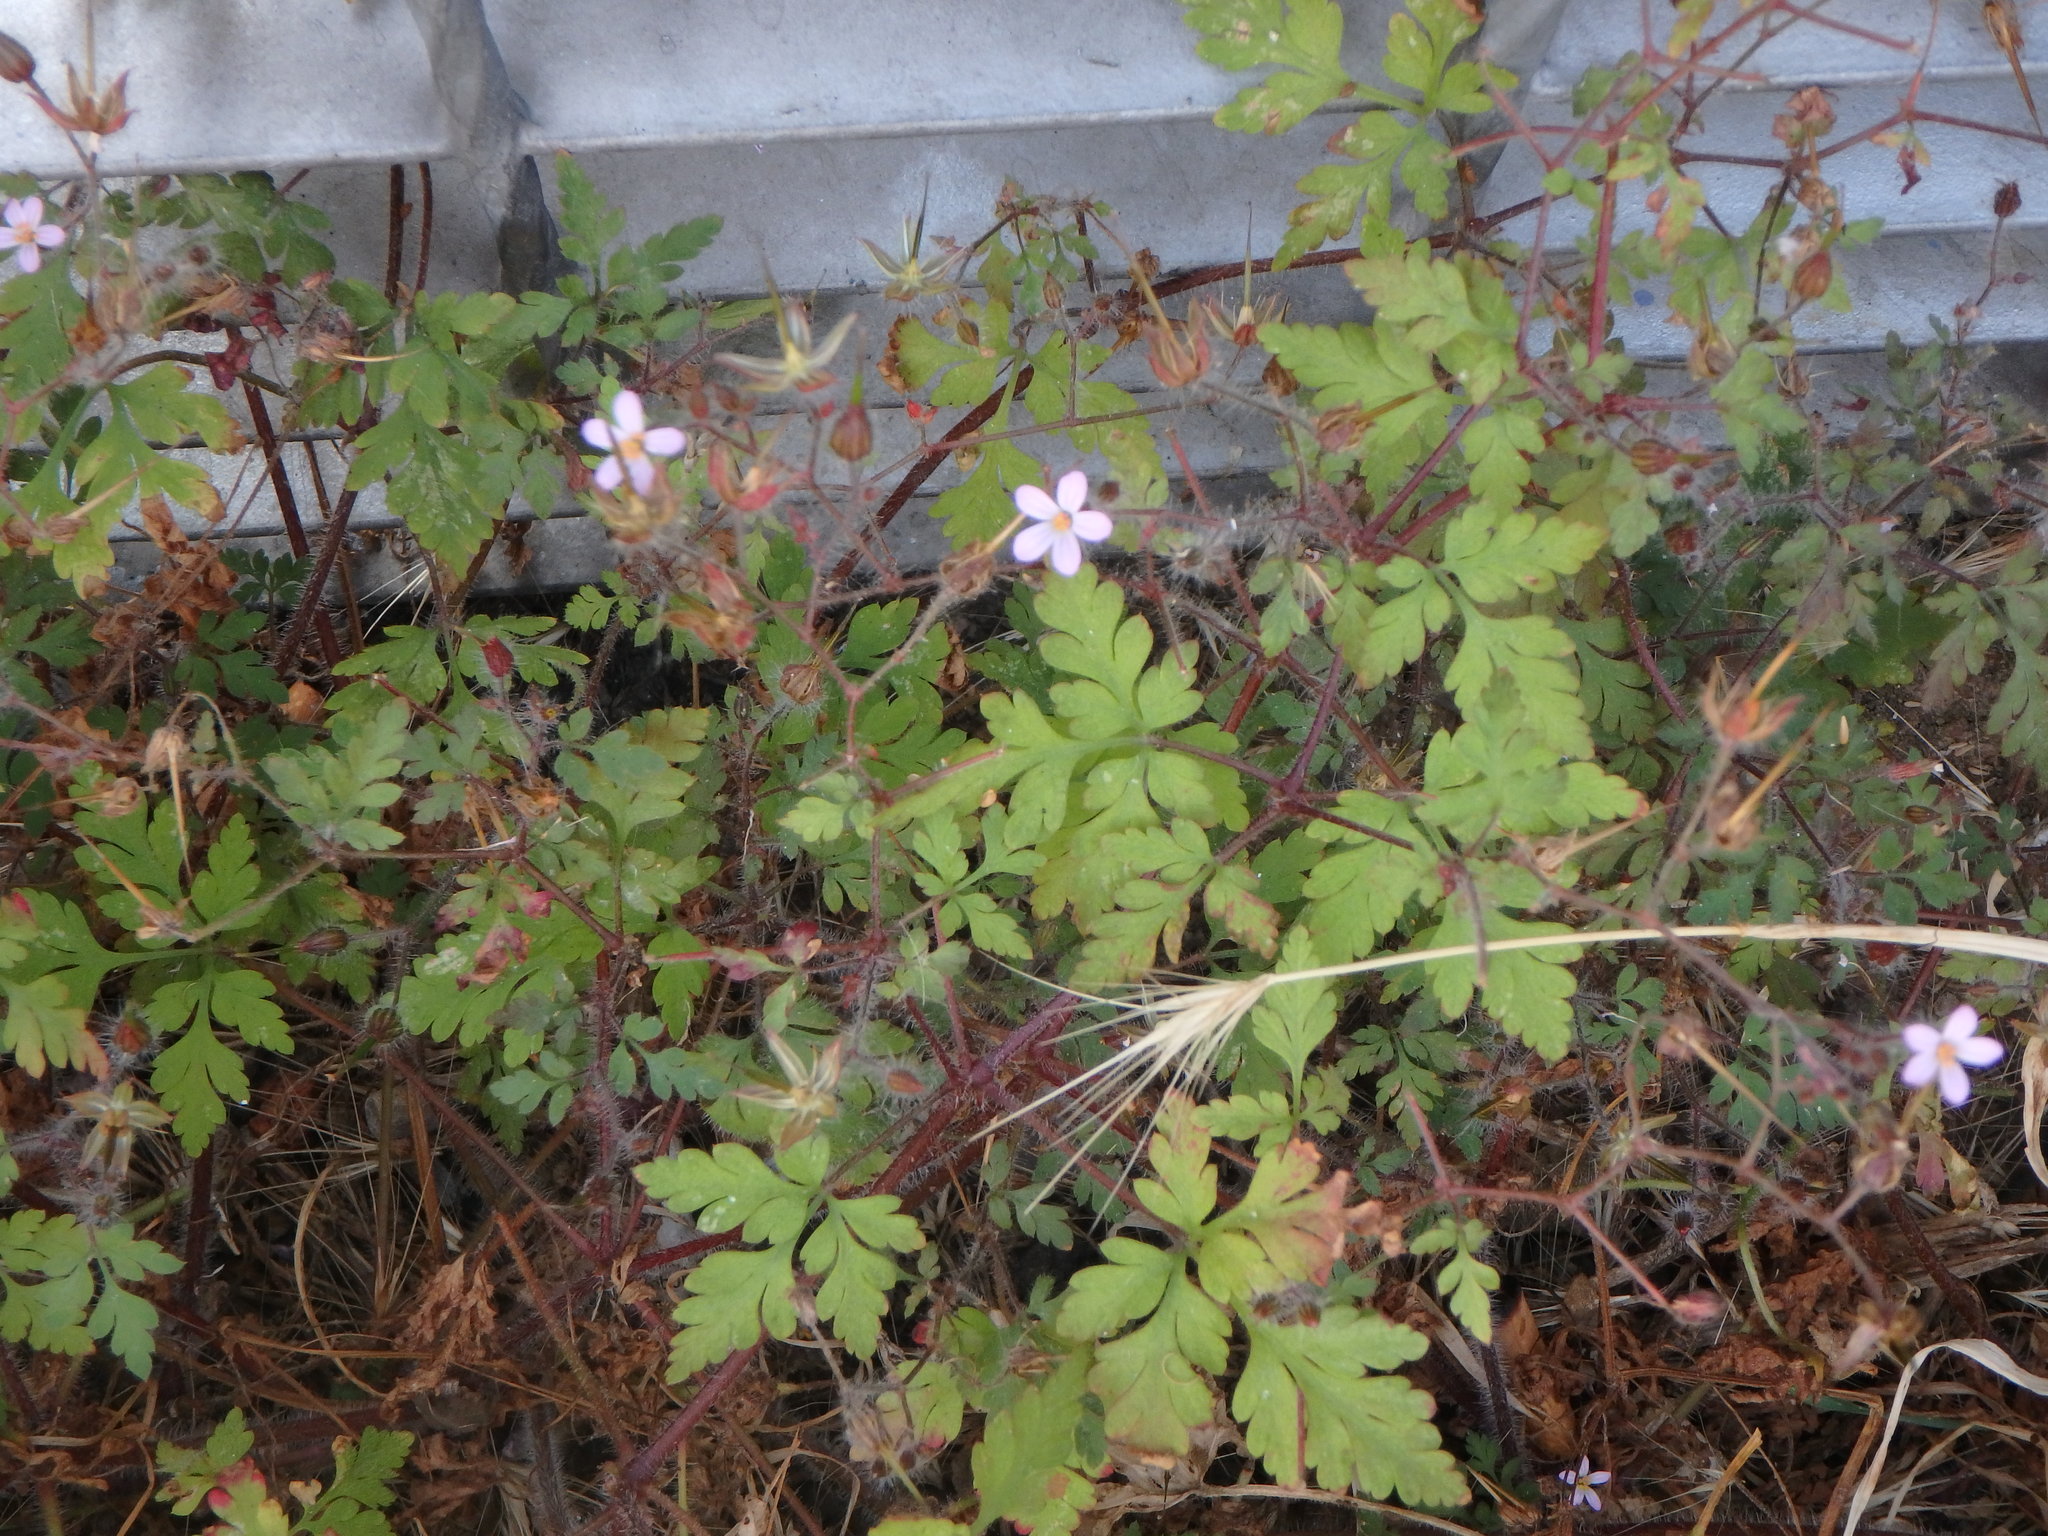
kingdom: Plantae
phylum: Tracheophyta
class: Magnoliopsida
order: Geraniales
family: Geraniaceae
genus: Geranium
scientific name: Geranium robertianum
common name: Herb-robert
